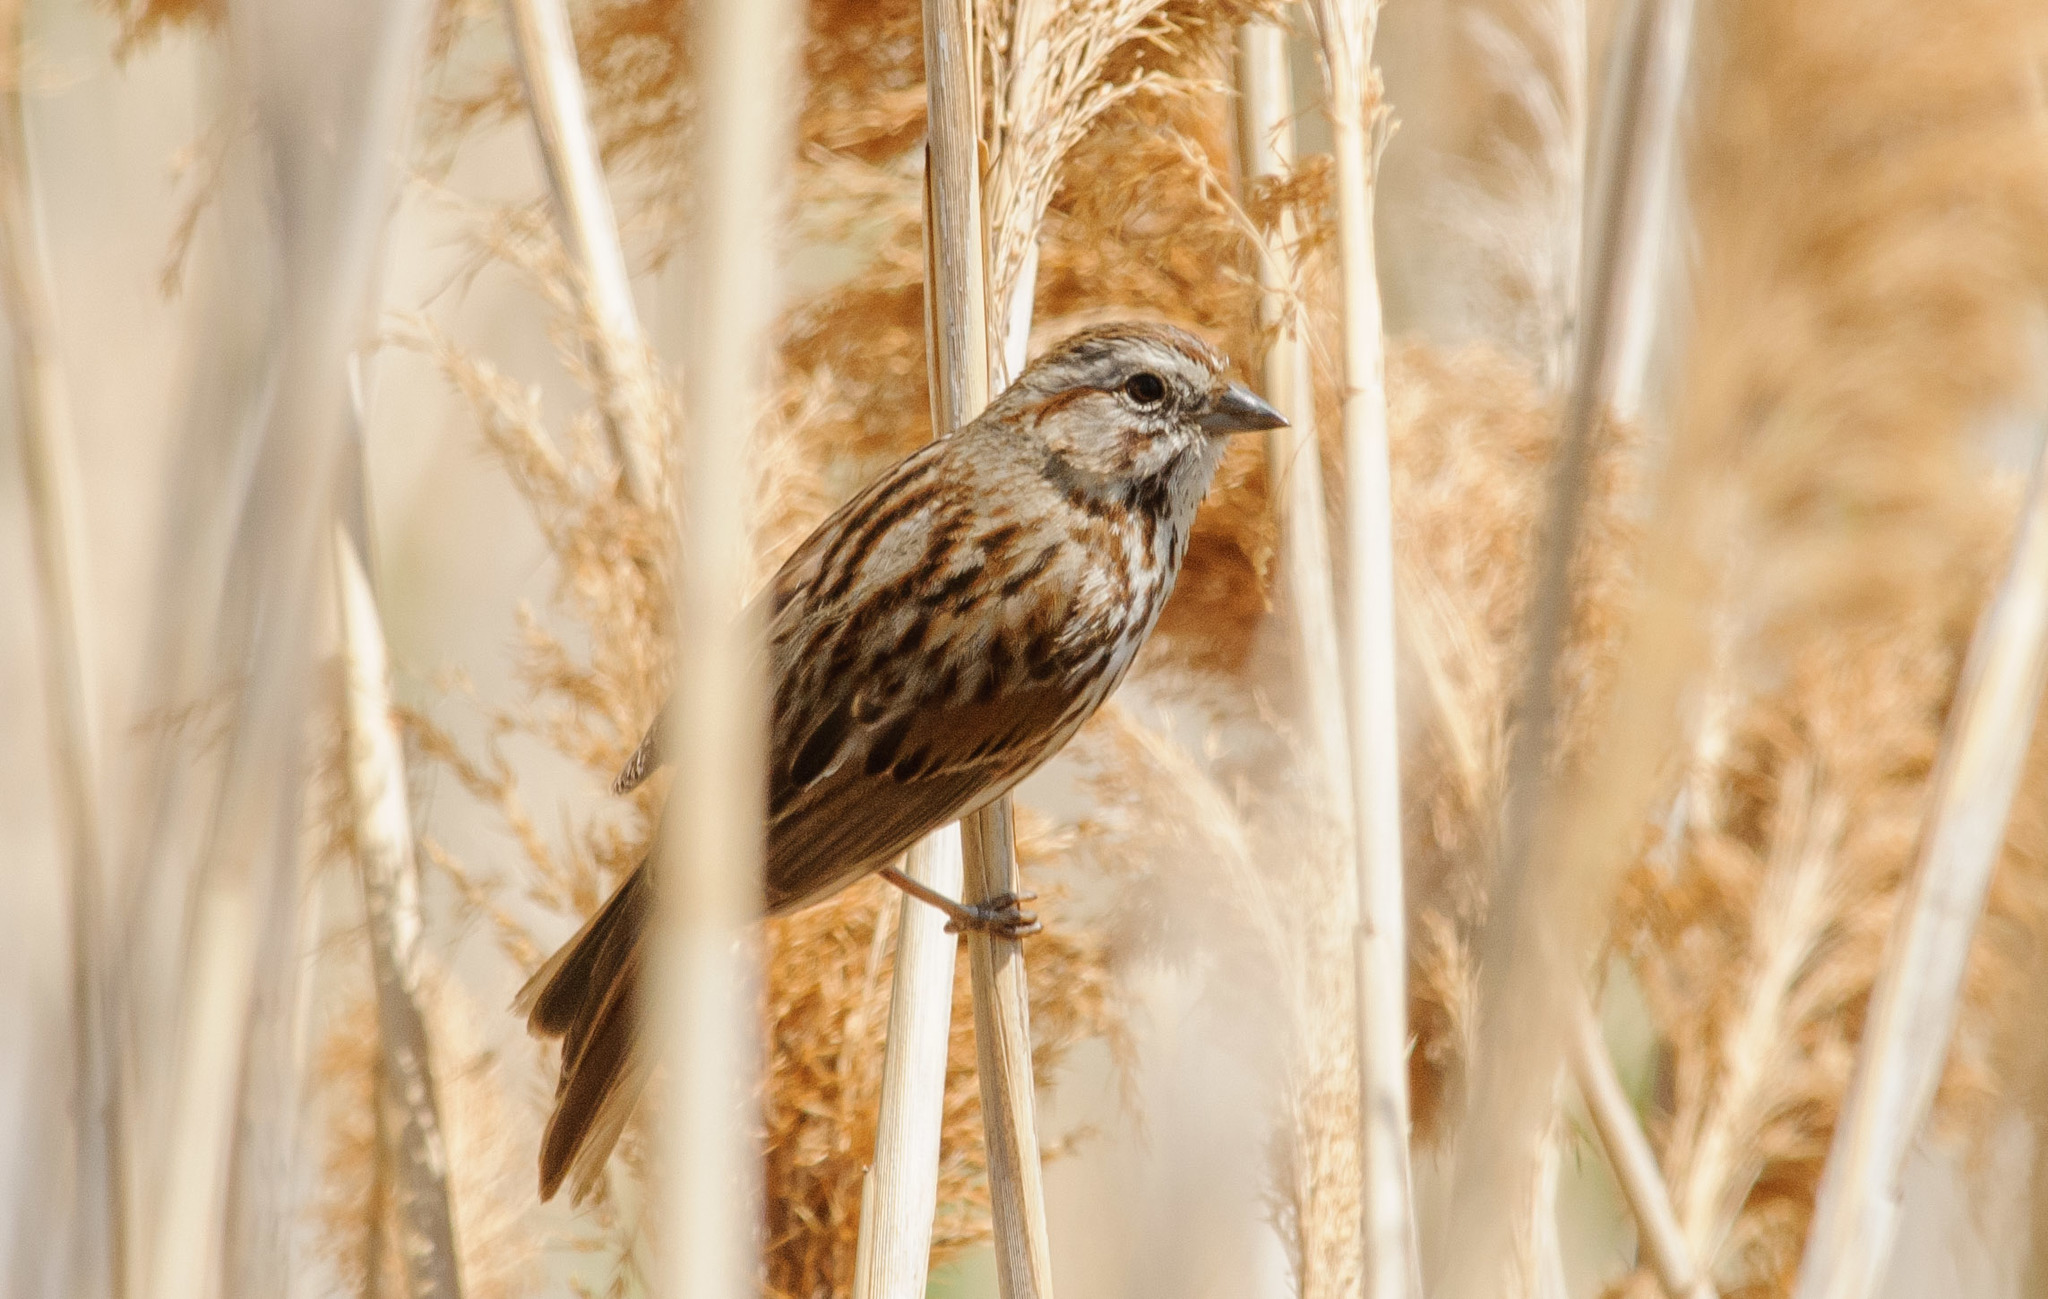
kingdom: Animalia
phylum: Chordata
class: Aves
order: Passeriformes
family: Passerellidae
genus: Melospiza
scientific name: Melospiza melodia
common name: Song sparrow
